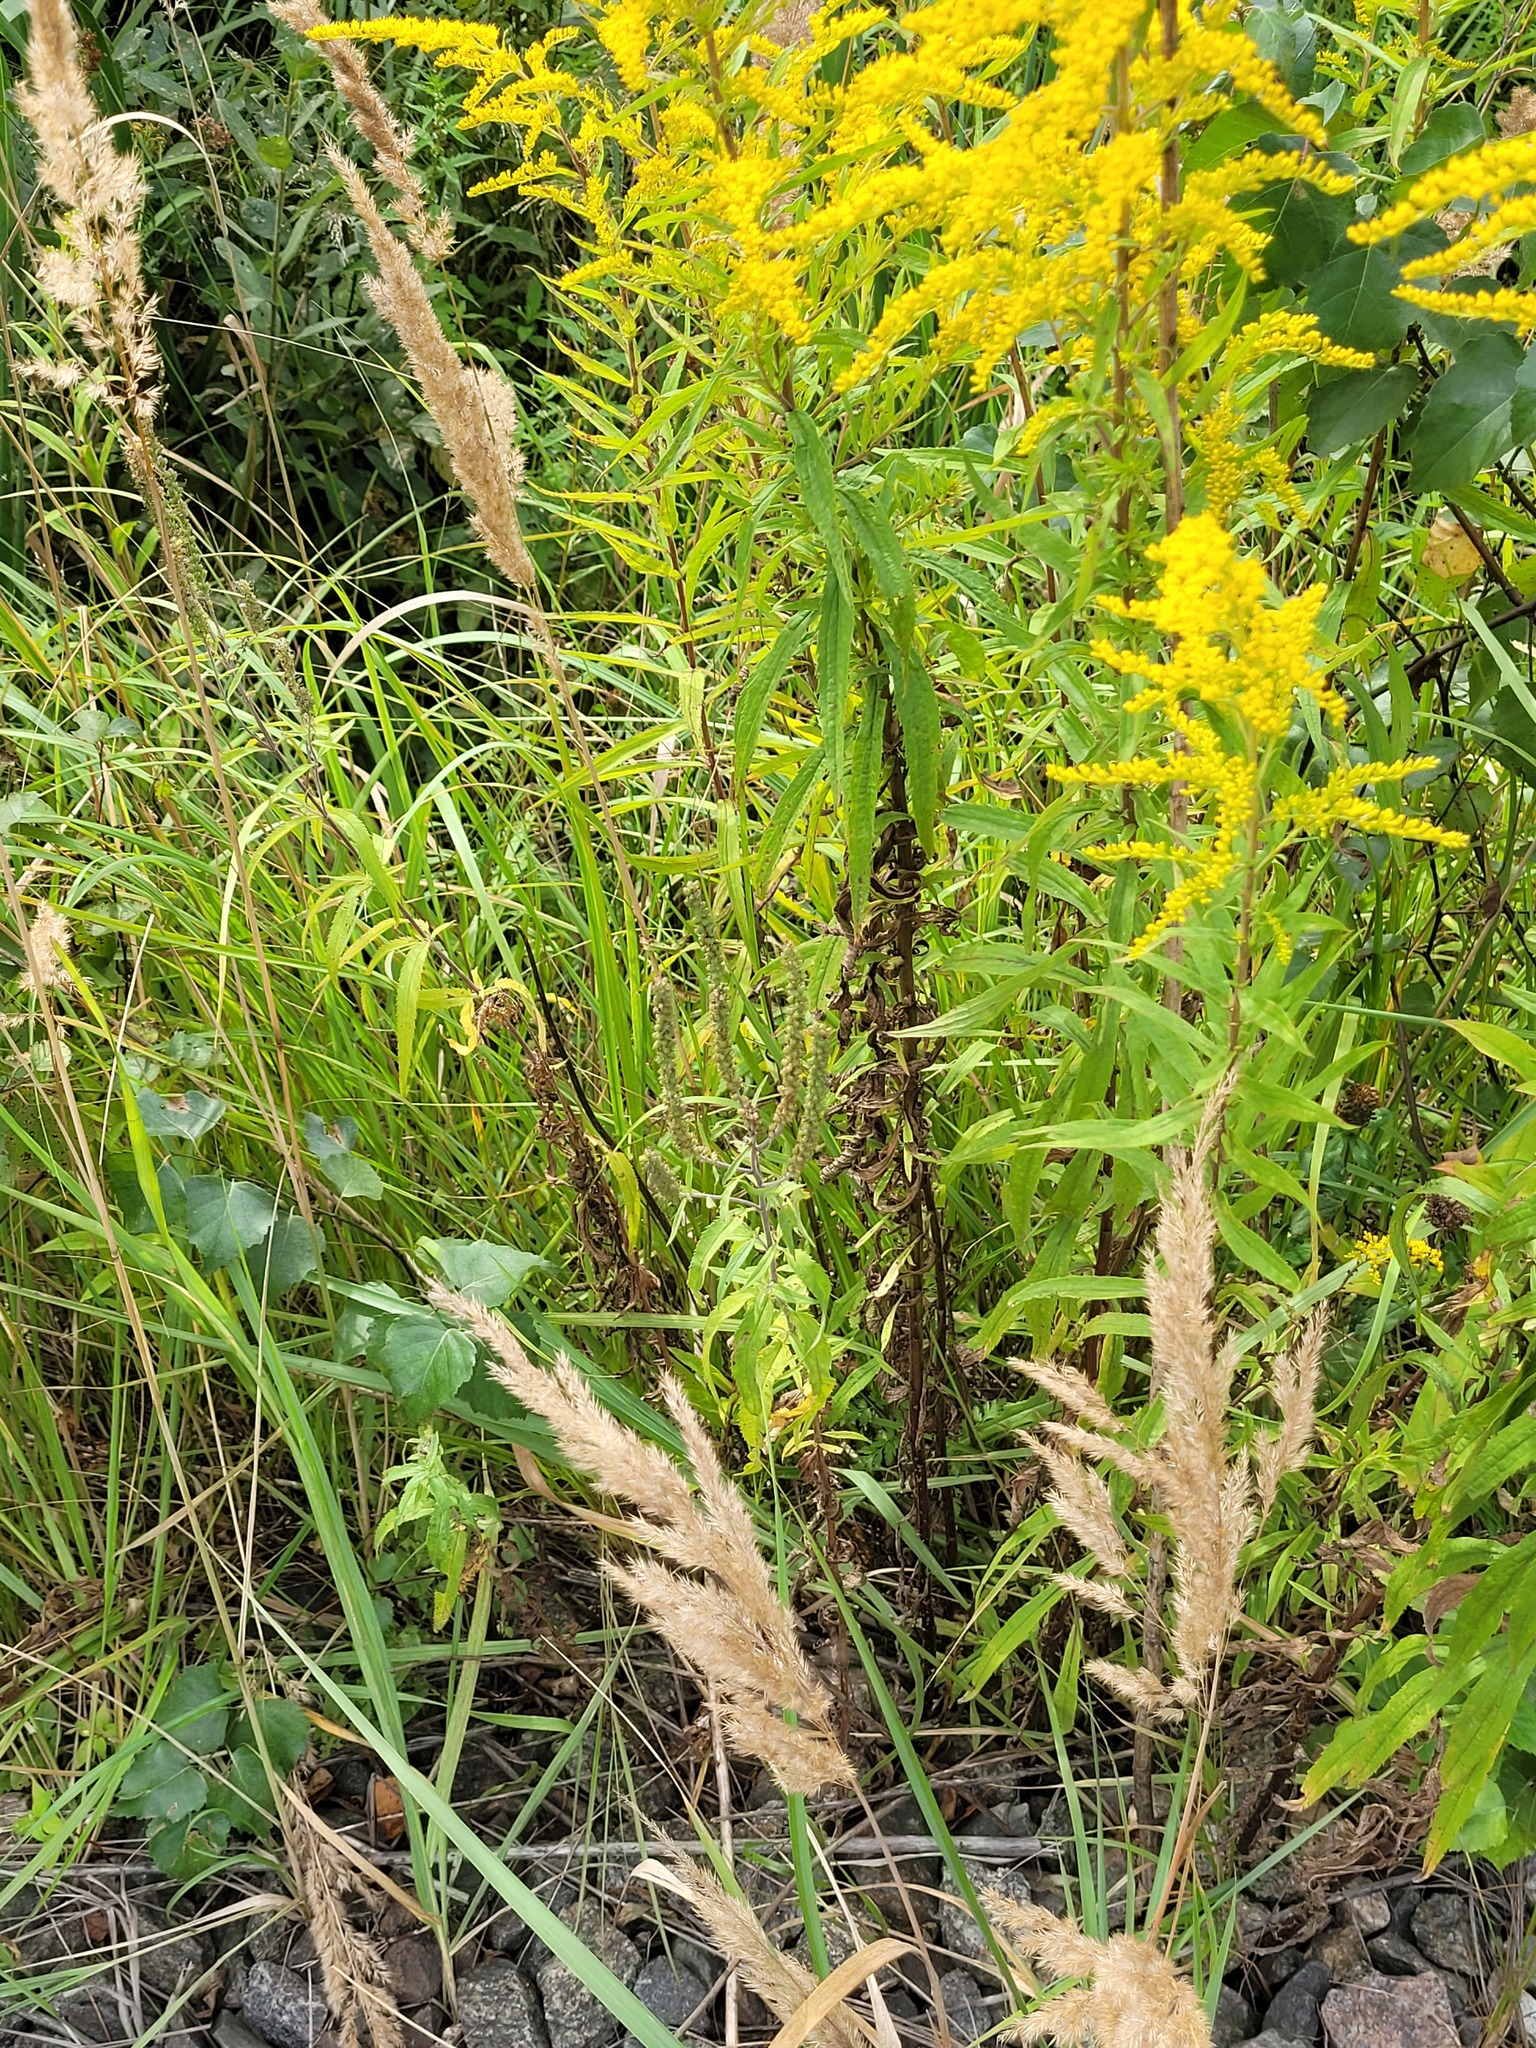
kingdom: Plantae
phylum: Tracheophyta
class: Magnoliopsida
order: Lamiales
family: Plantaginaceae
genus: Veronica
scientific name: Veronica longifolia
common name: Garden speedwell
